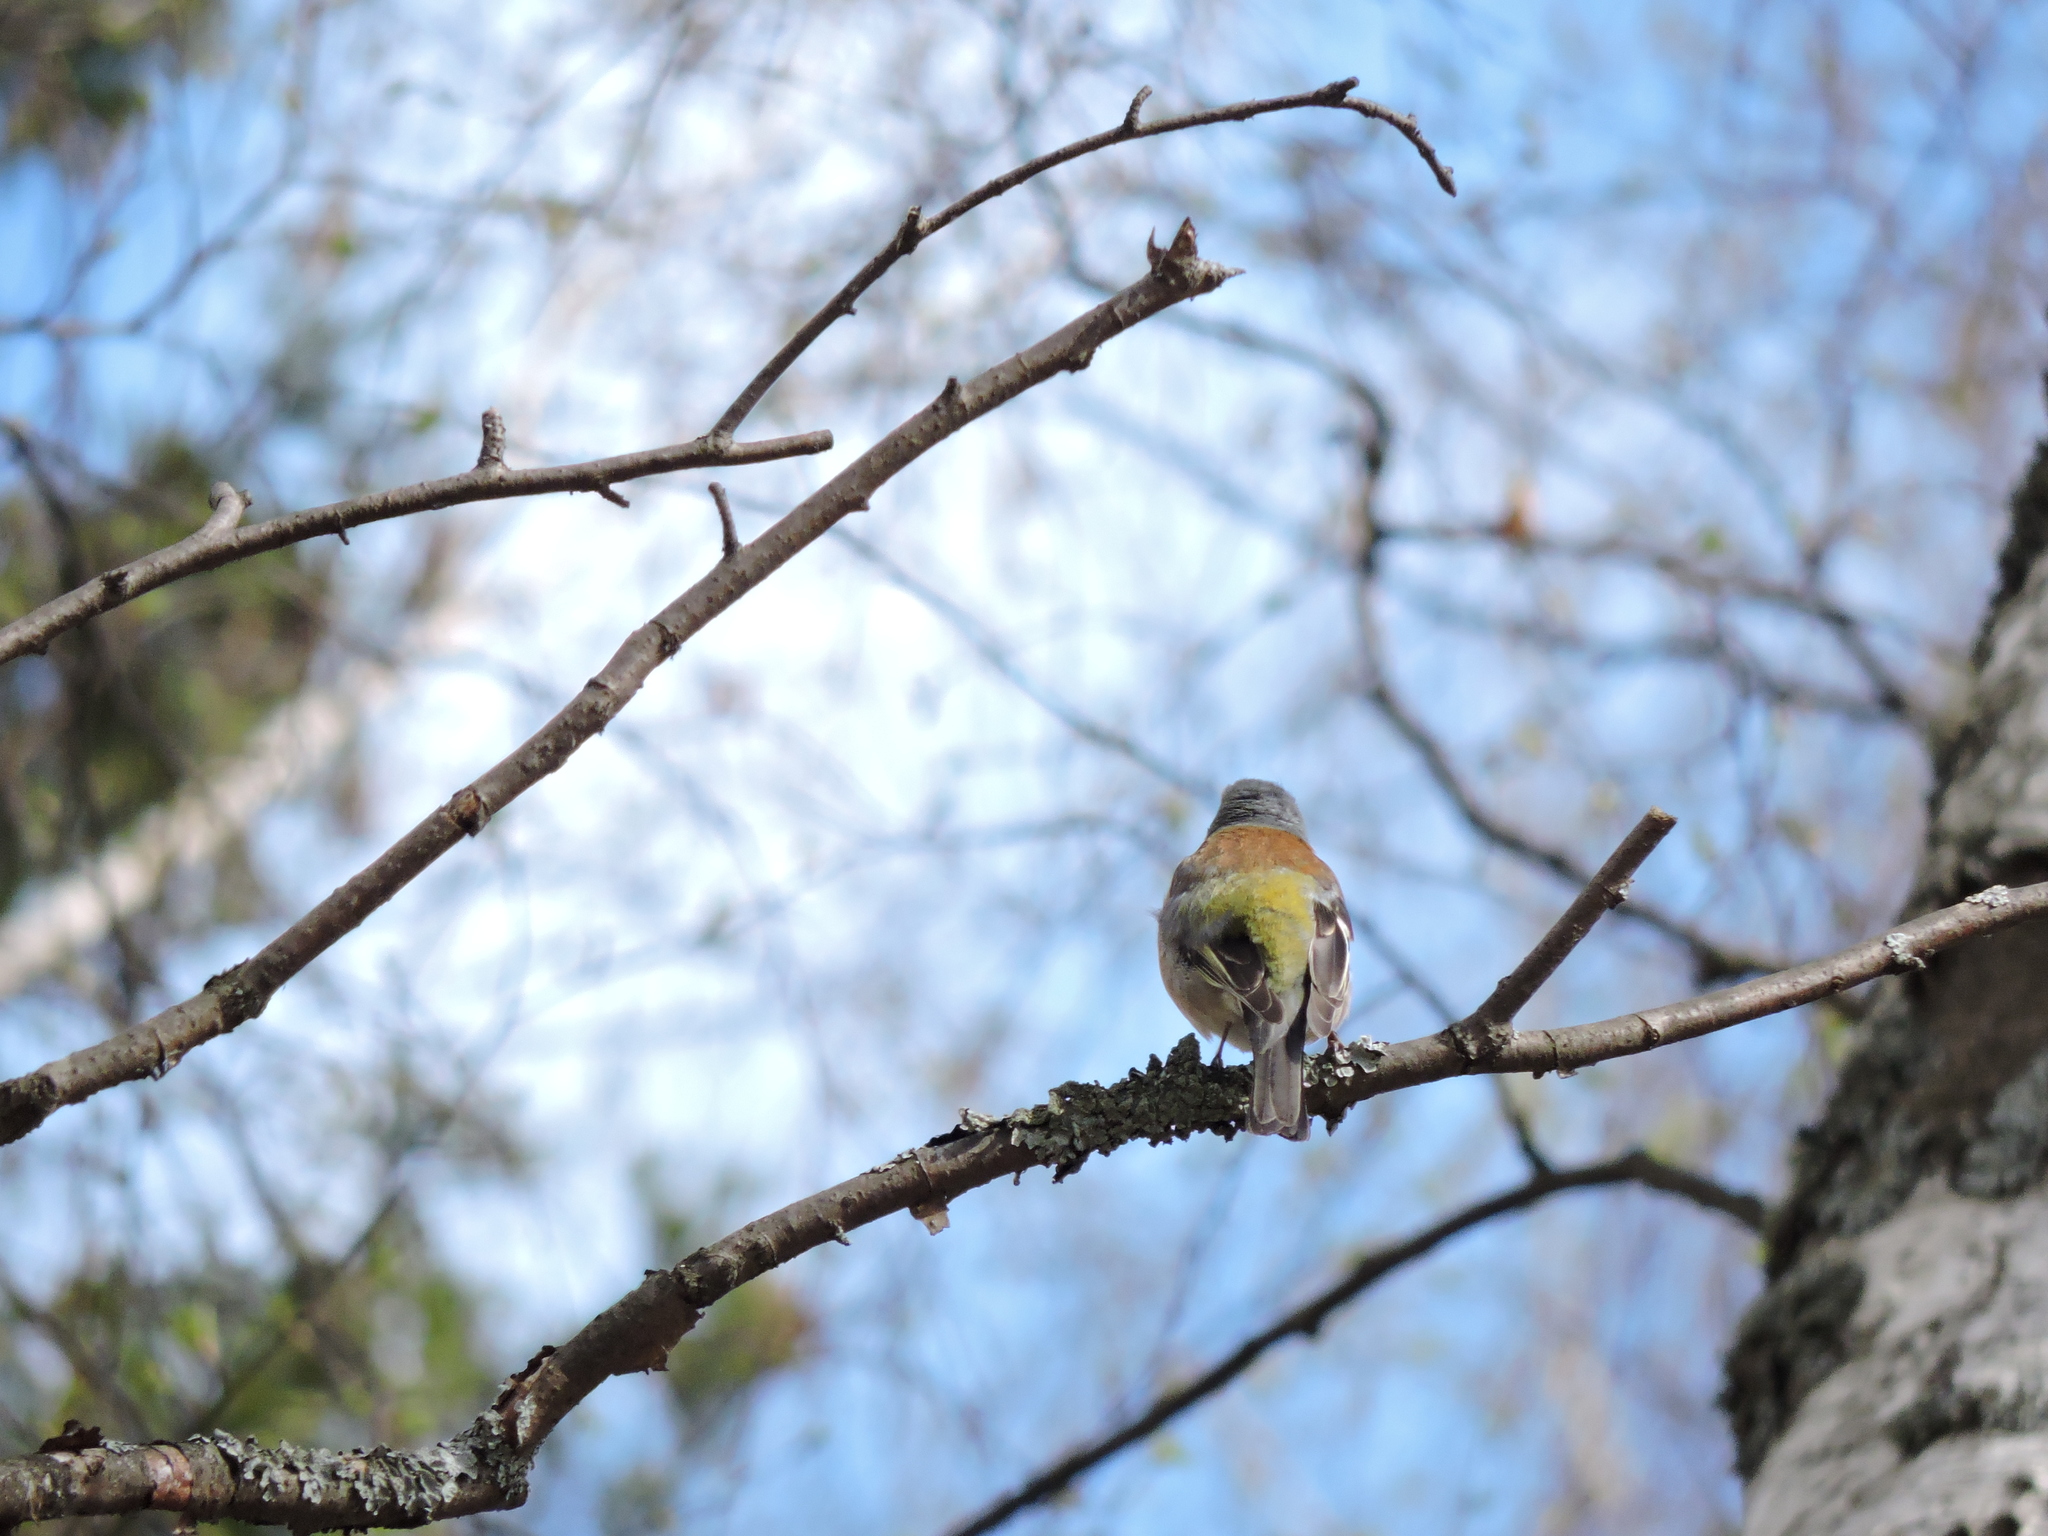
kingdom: Animalia
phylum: Chordata
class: Aves
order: Passeriformes
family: Fringillidae
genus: Fringilla
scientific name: Fringilla coelebs
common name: Common chaffinch
